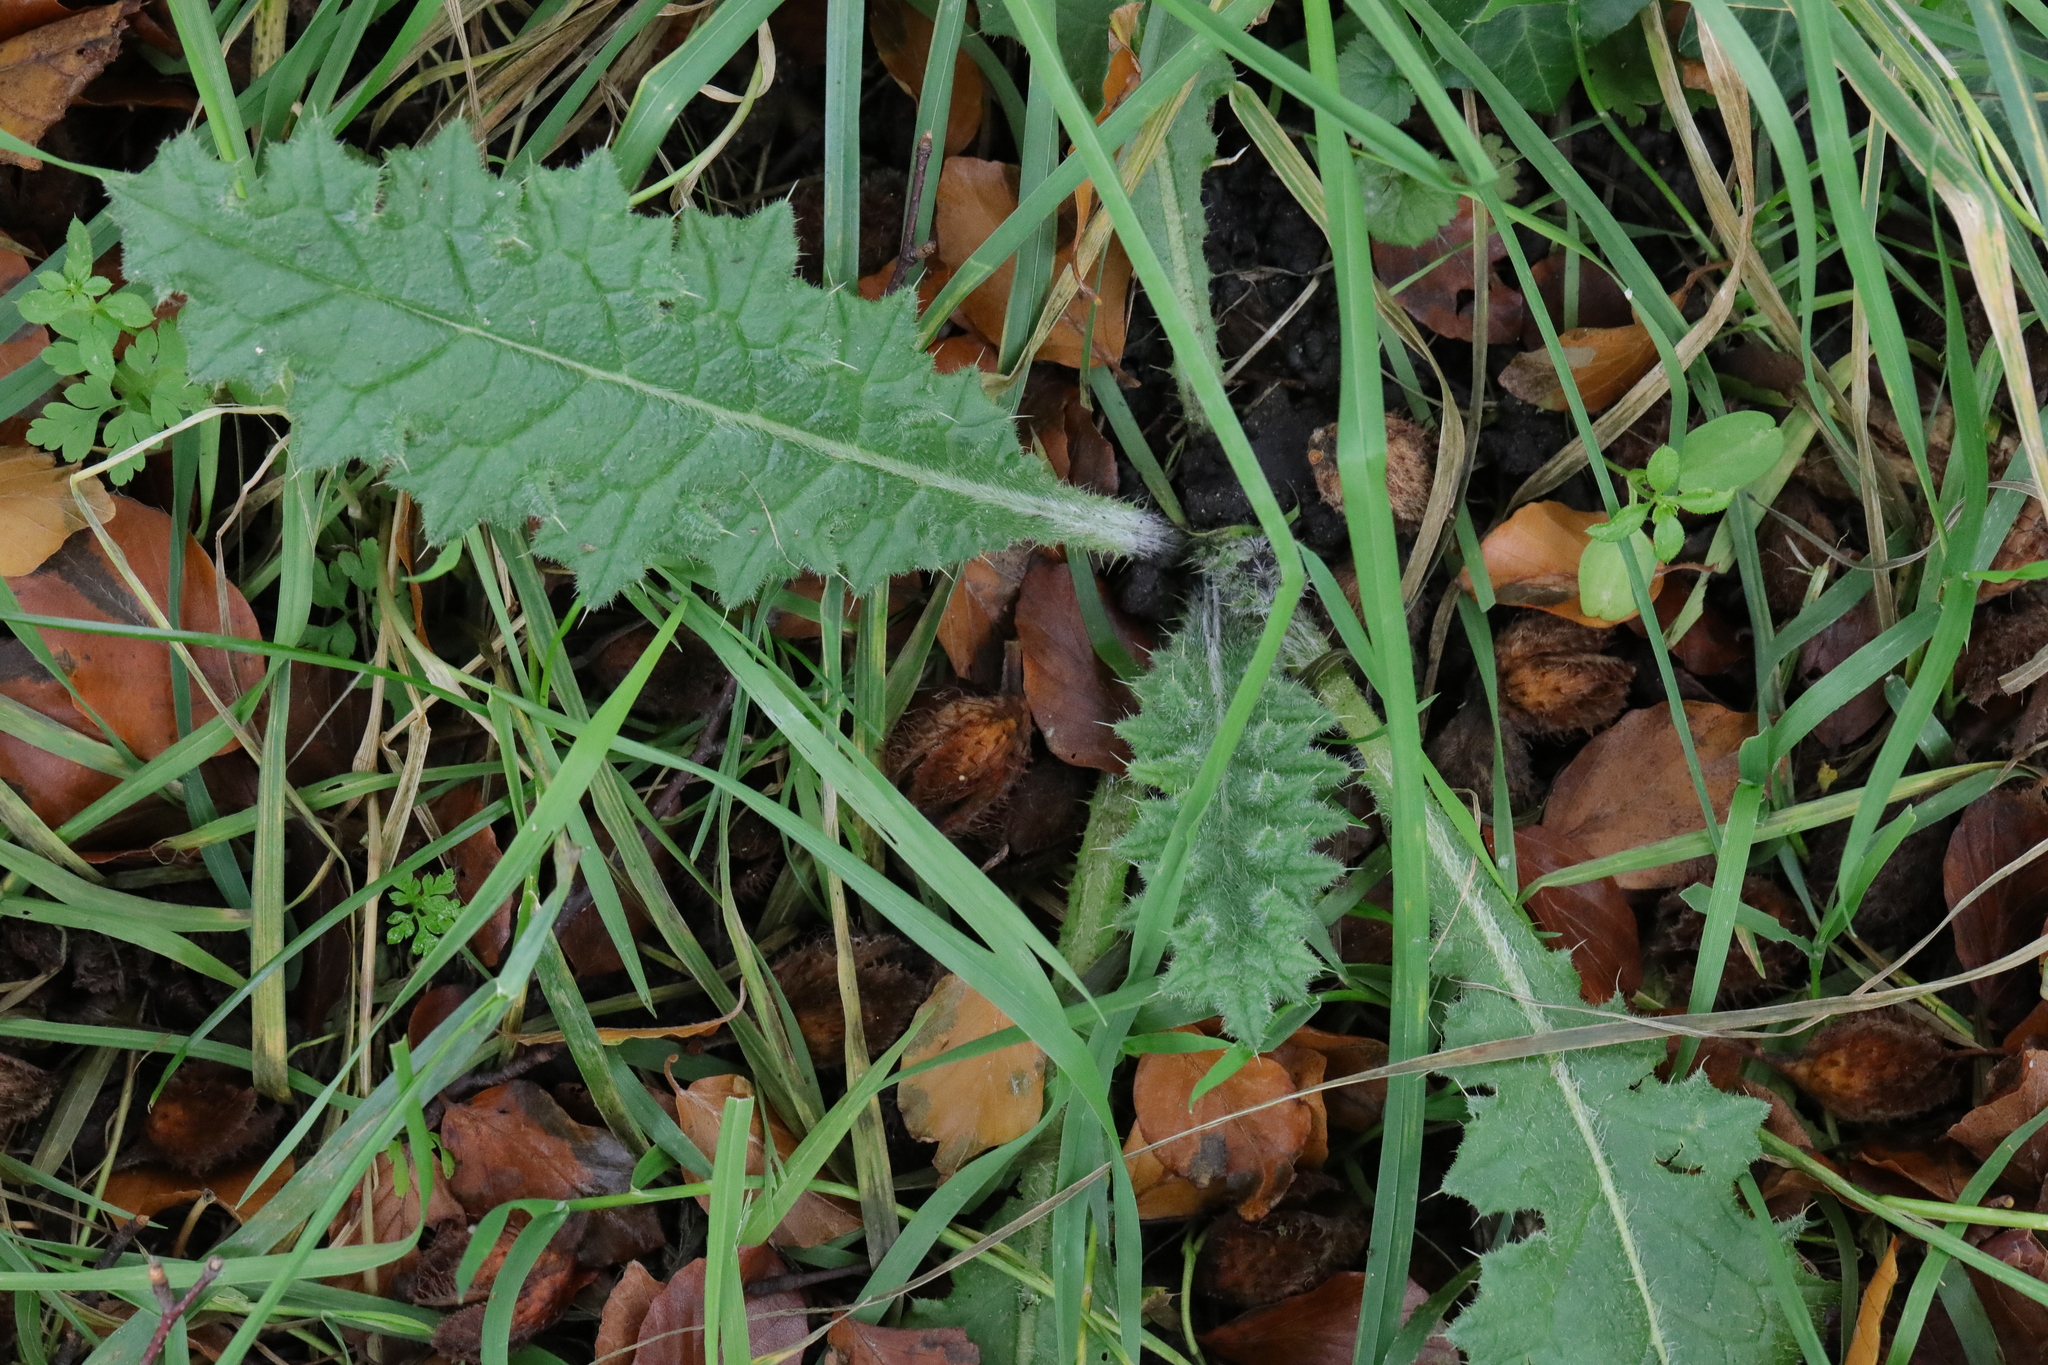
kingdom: Plantae
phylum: Tracheophyta
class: Magnoliopsida
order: Asterales
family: Asteraceae
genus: Cirsium
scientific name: Cirsium vulgare
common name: Bull thistle
